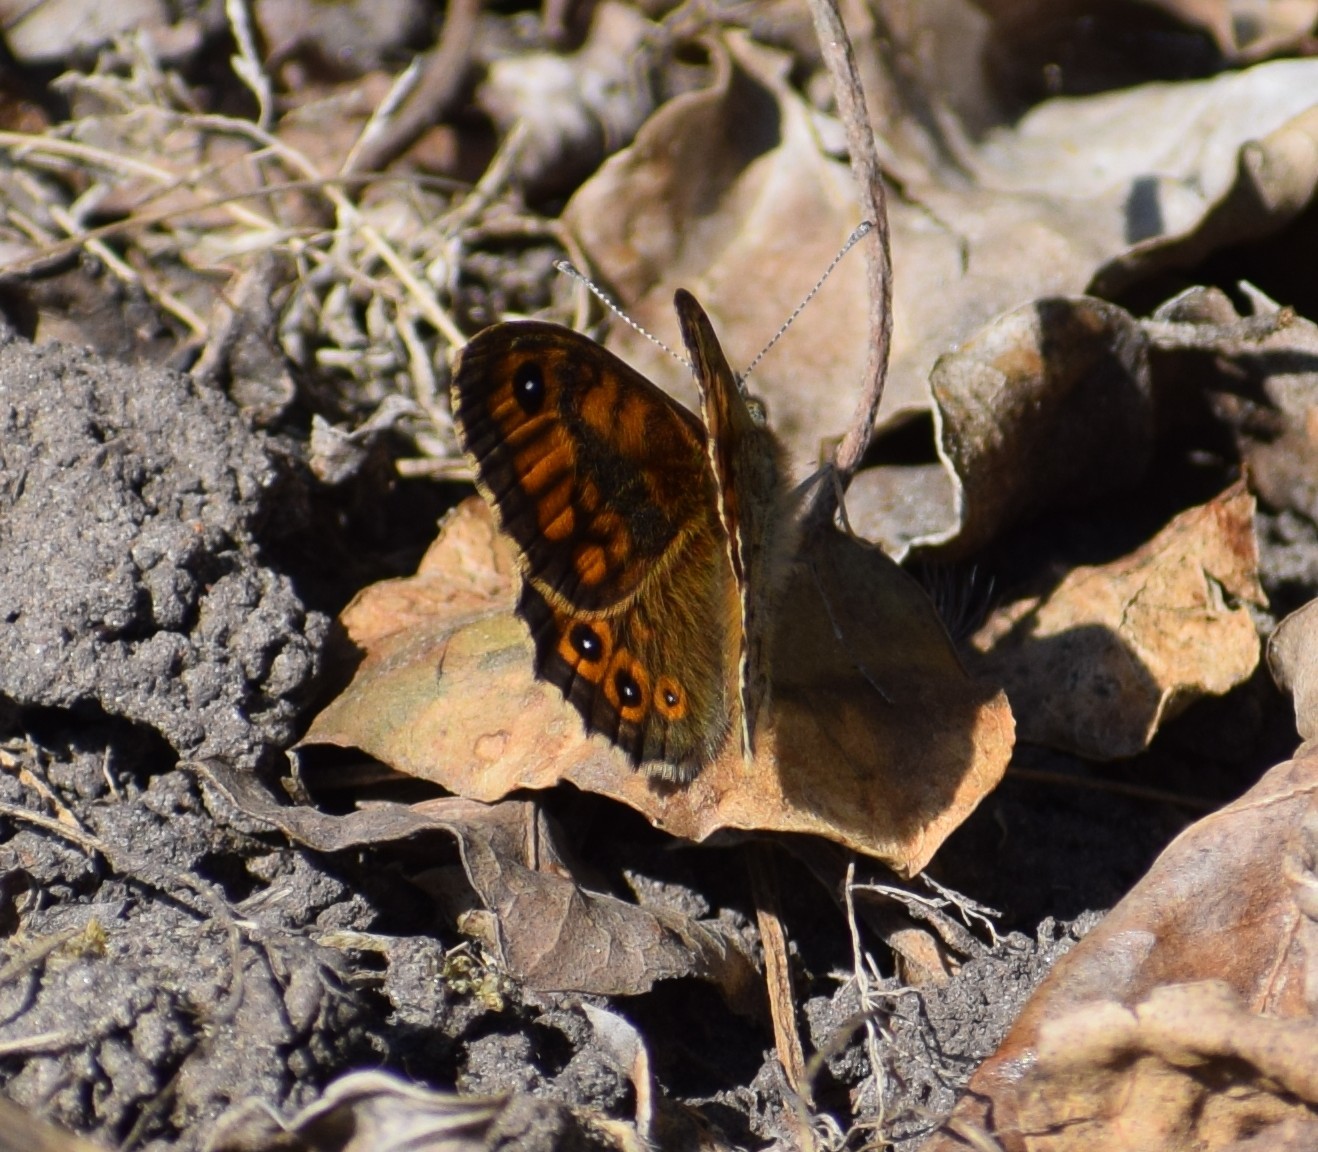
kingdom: Animalia
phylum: Arthropoda
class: Insecta
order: Lepidoptera
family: Nymphalidae
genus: Pararge
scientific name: Pararge Lasiommata megera
